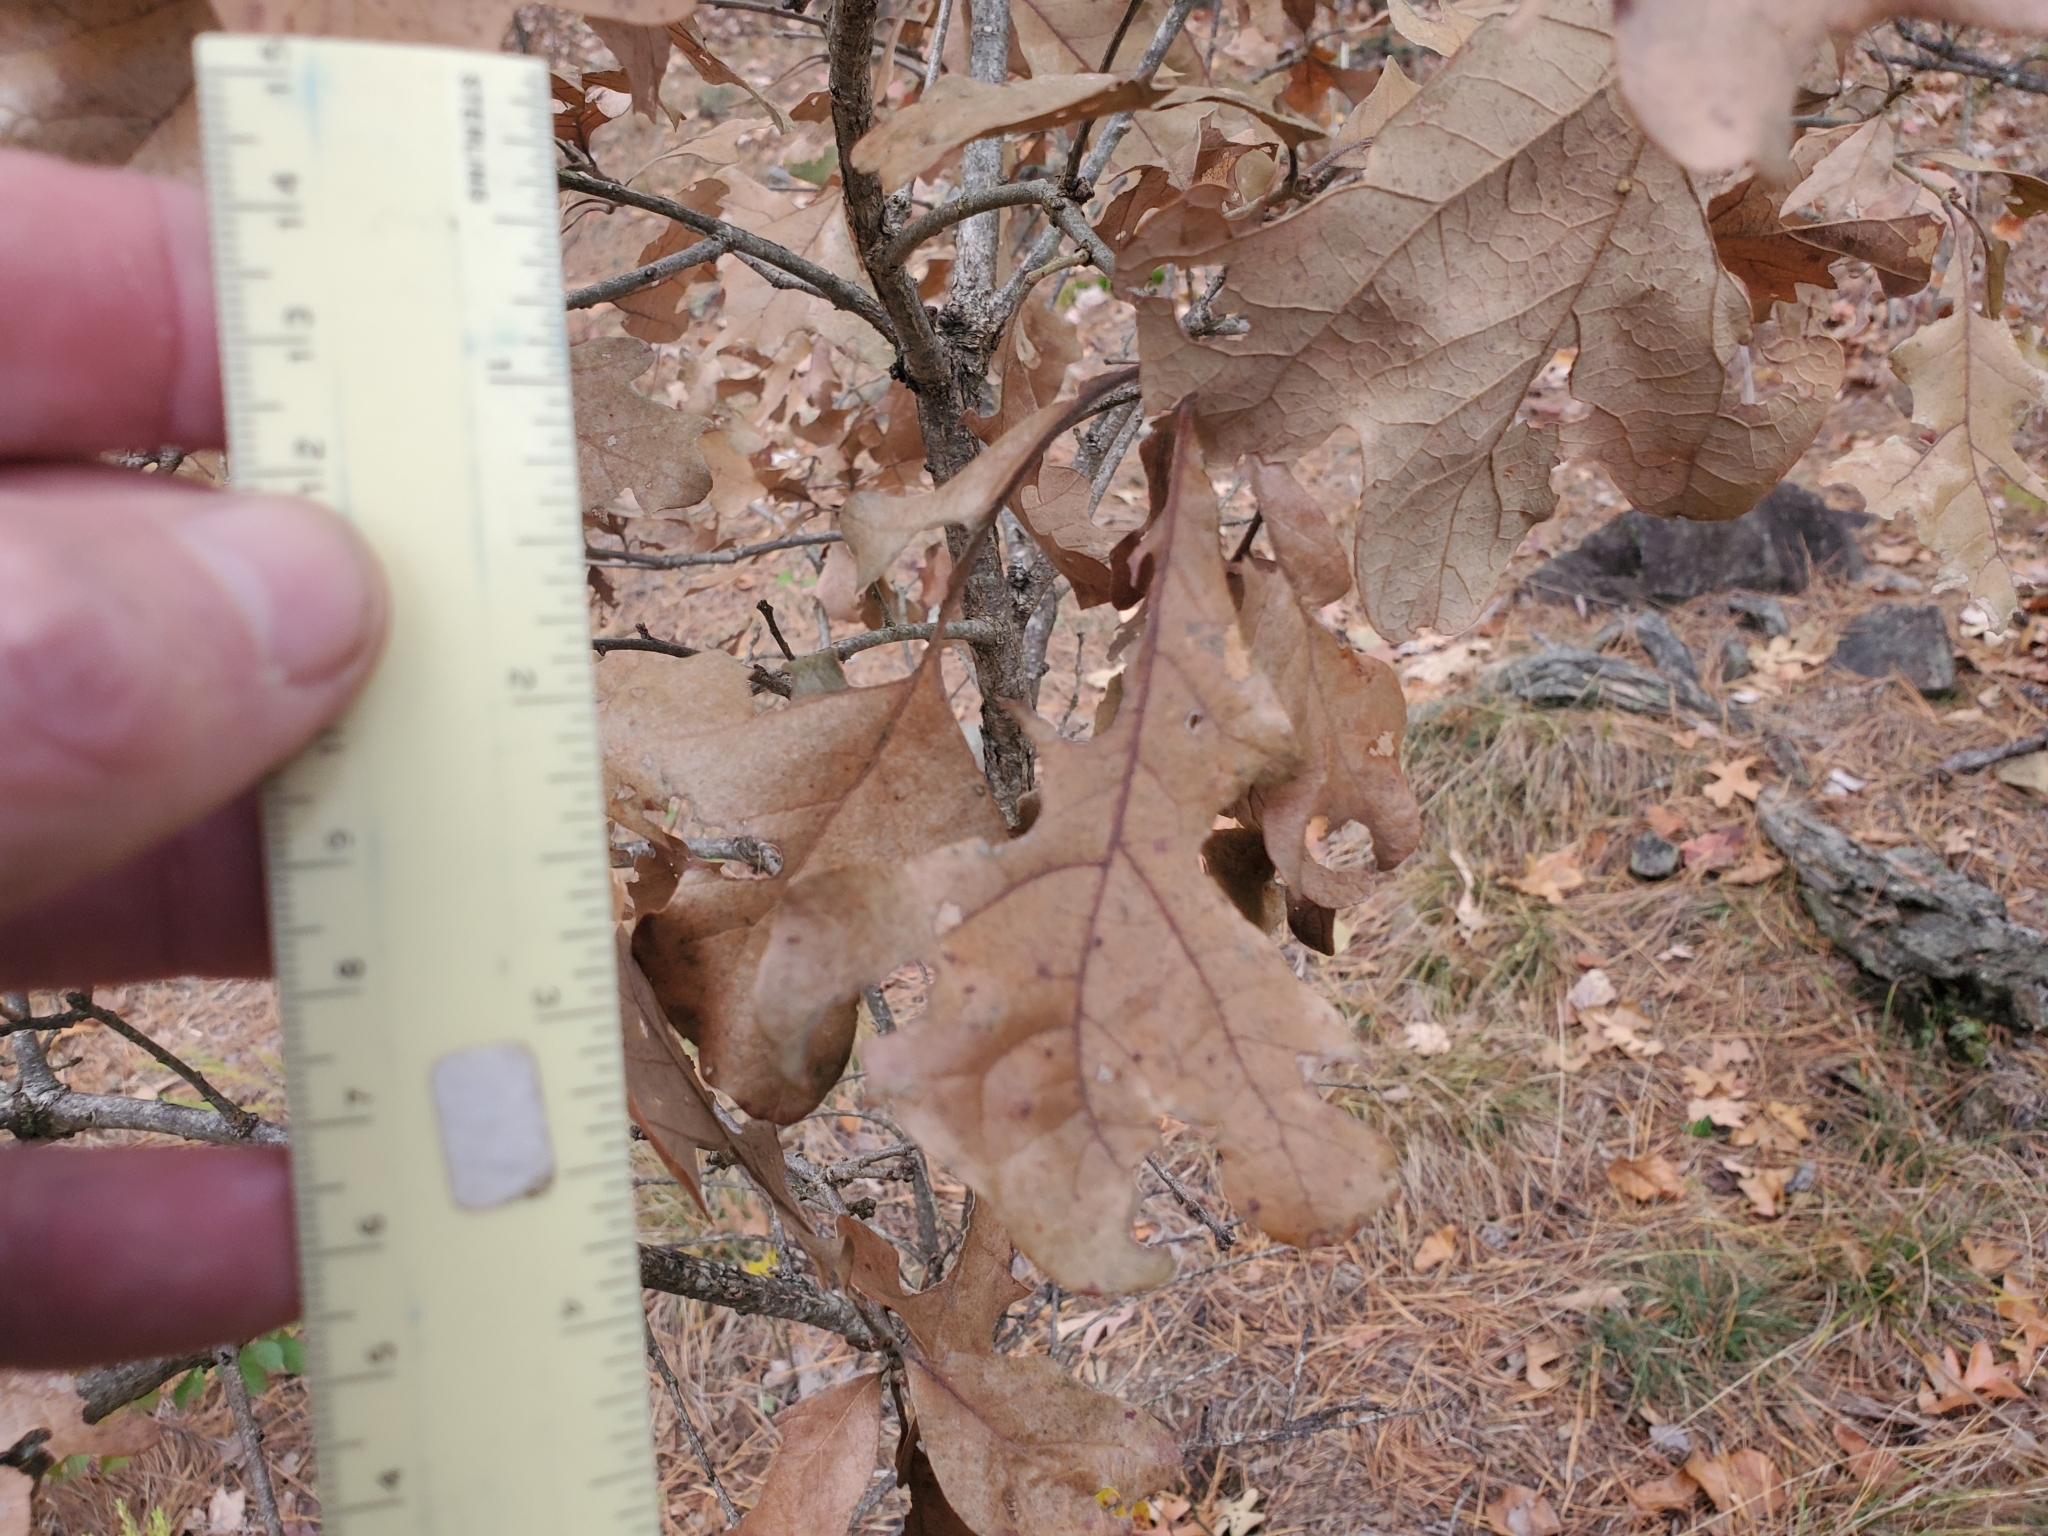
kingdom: Plantae
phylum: Tracheophyta
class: Magnoliopsida
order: Fagales
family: Fagaceae
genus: Quercus
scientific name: Quercus stellata
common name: Post oak
